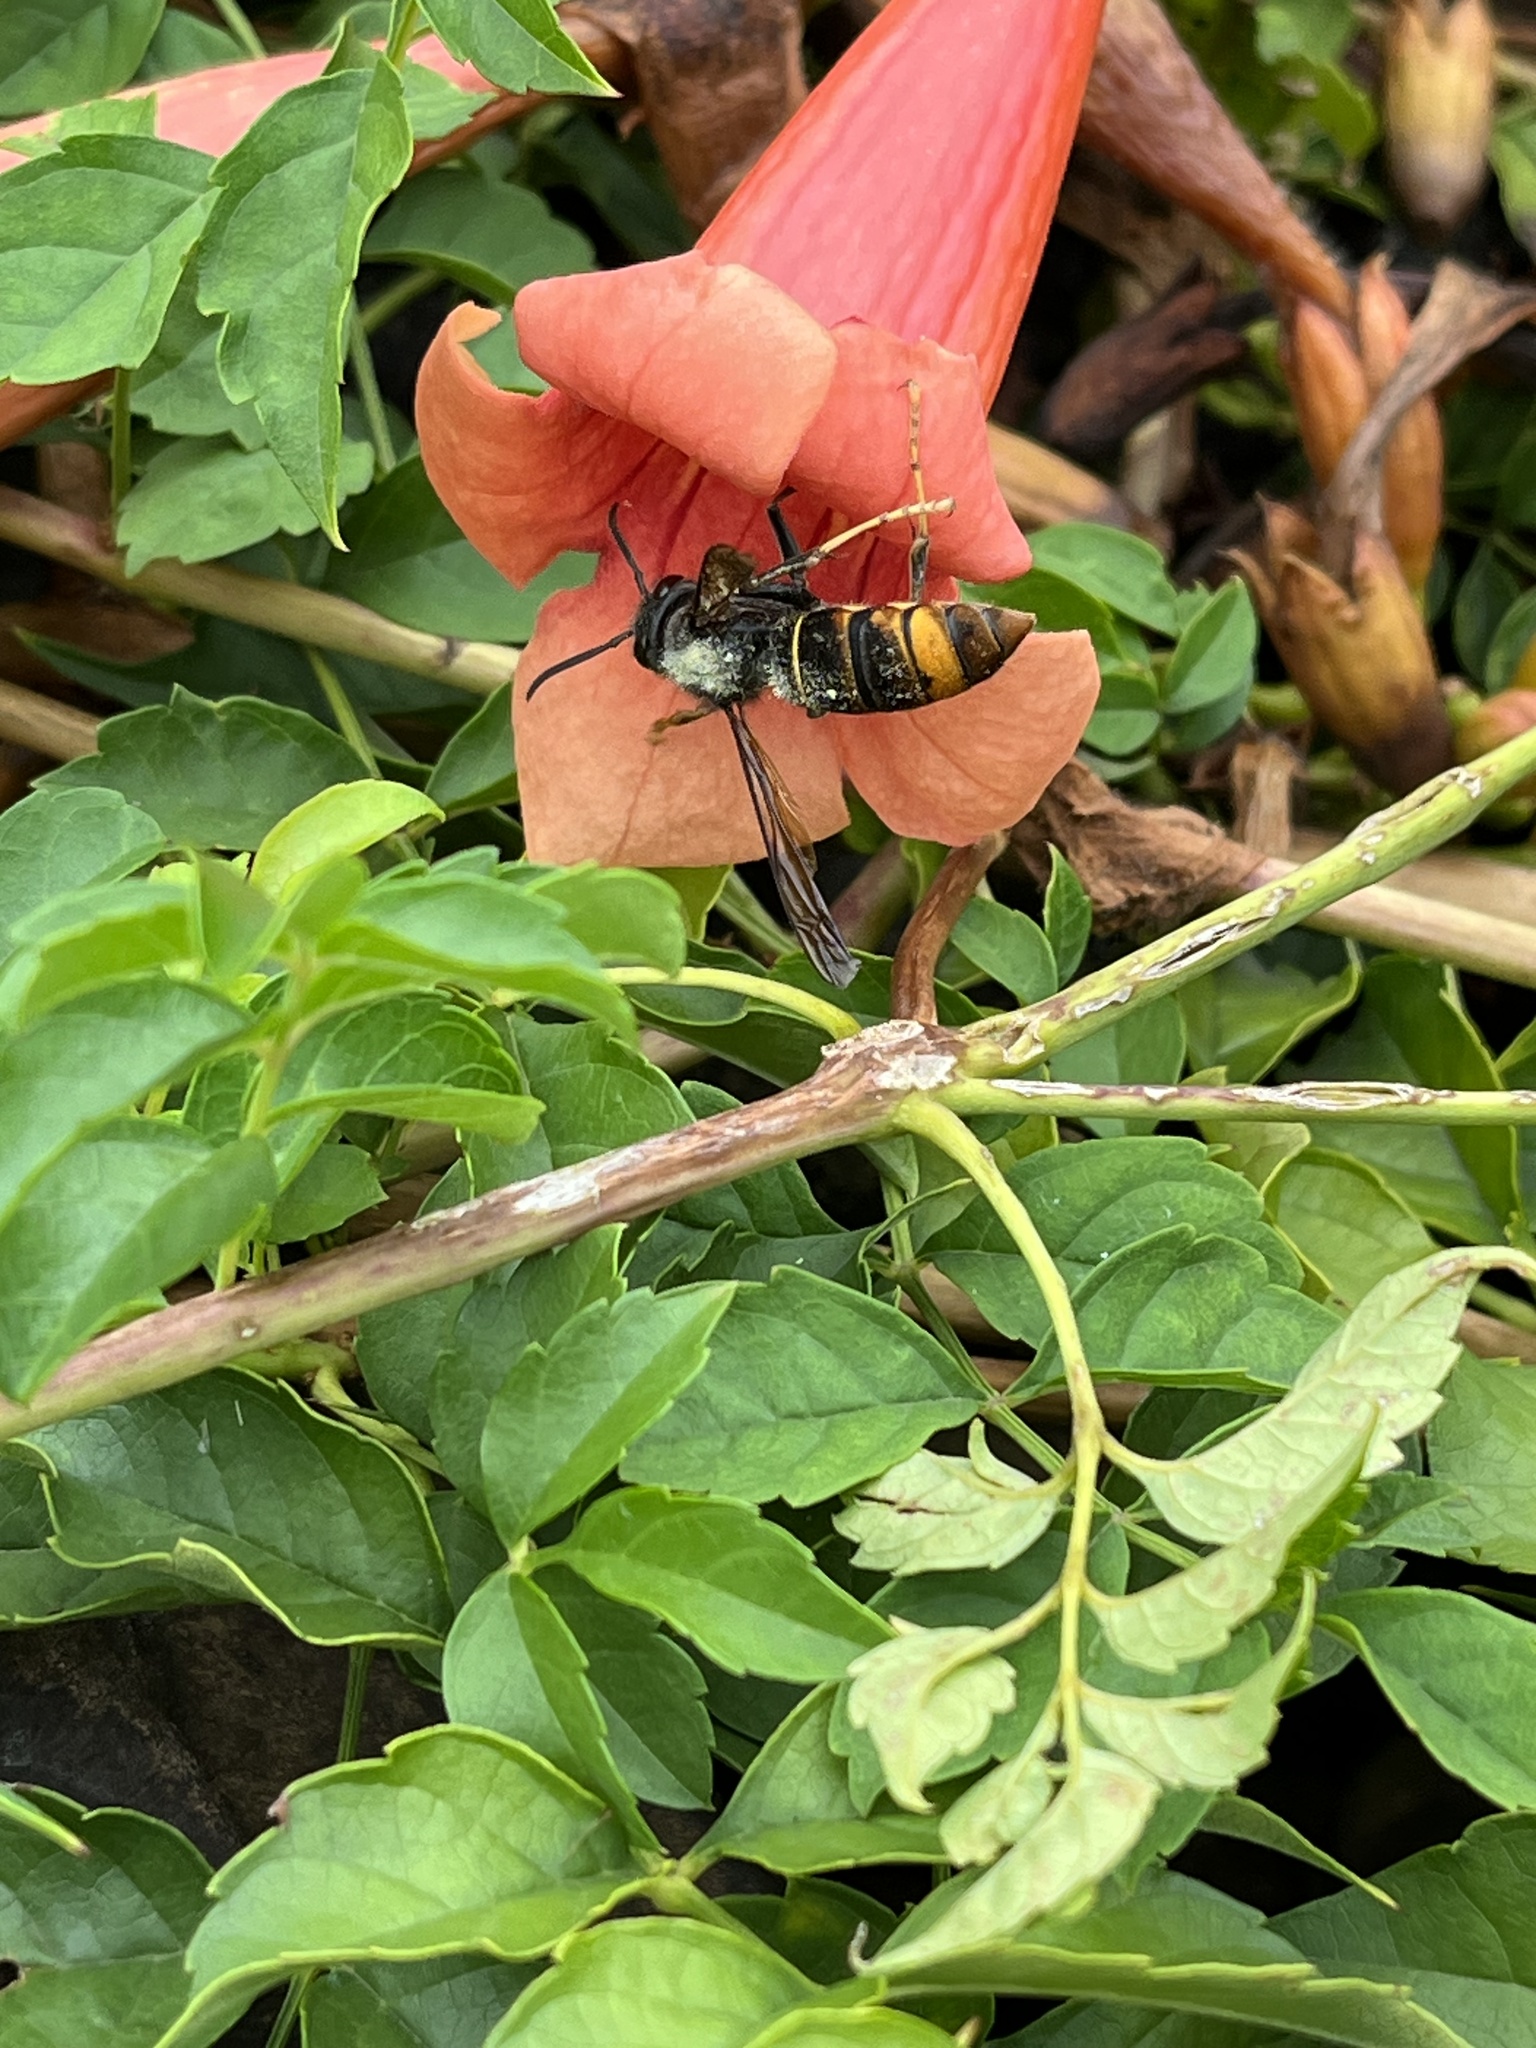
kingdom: Animalia
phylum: Arthropoda
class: Insecta
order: Hymenoptera
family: Vespidae
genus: Vespa
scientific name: Vespa velutina
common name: Asian hornet
